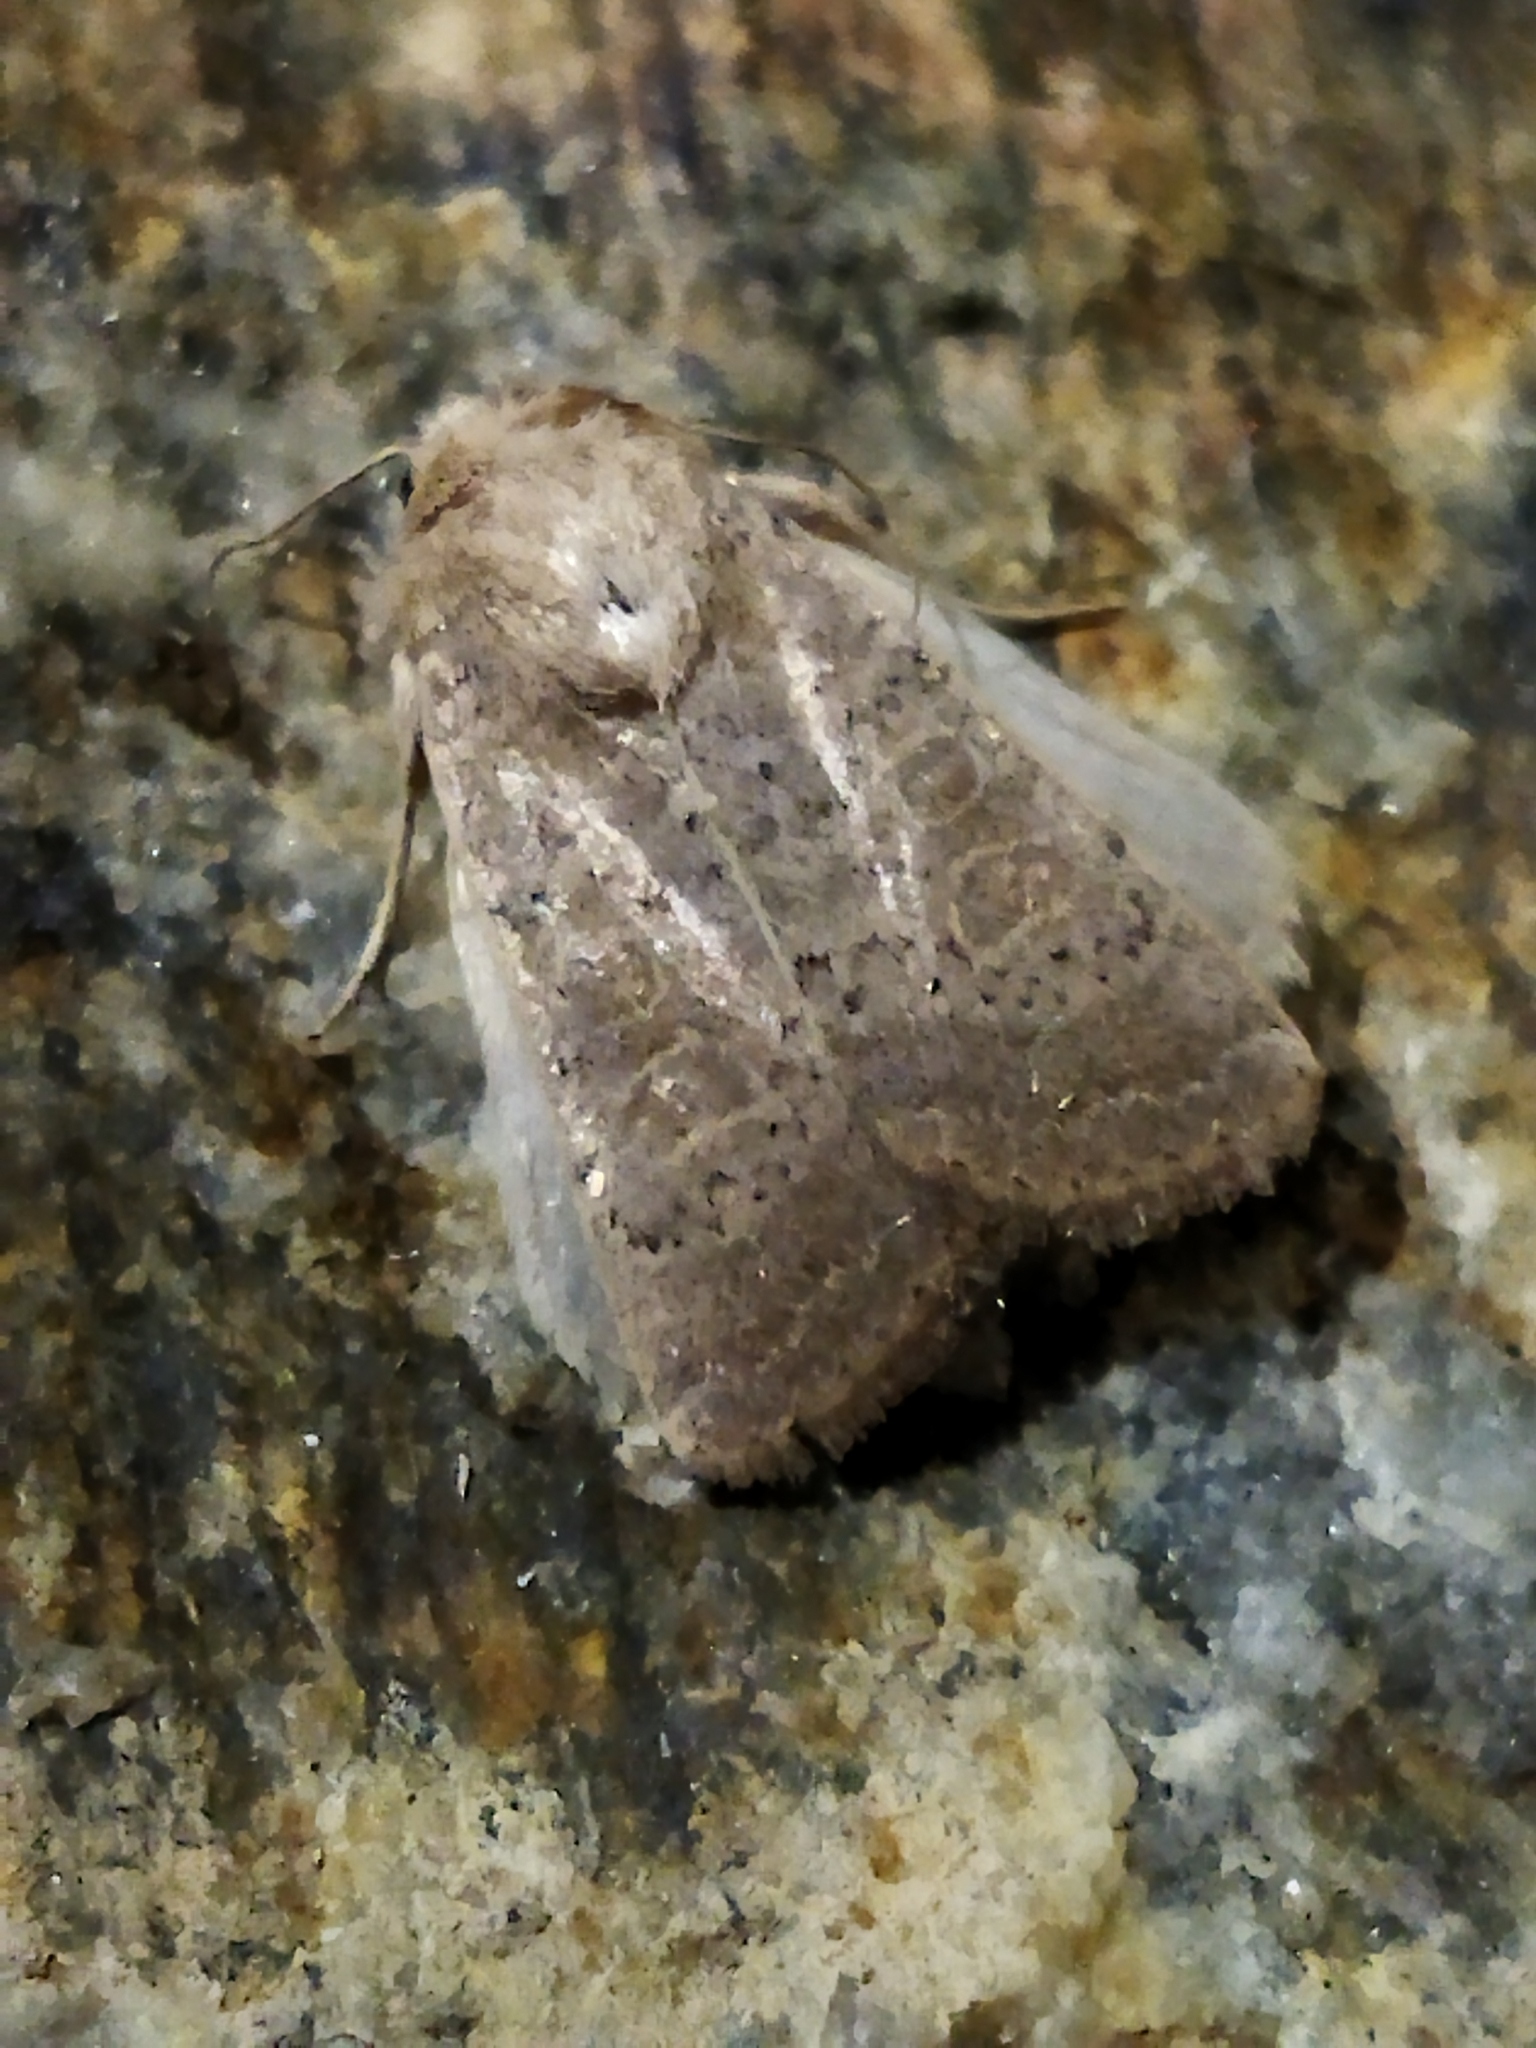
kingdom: Animalia
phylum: Arthropoda
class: Insecta
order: Lepidoptera
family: Noctuidae
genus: Hoplodrina
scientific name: Hoplodrina ambigua
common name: Vine's rustic
